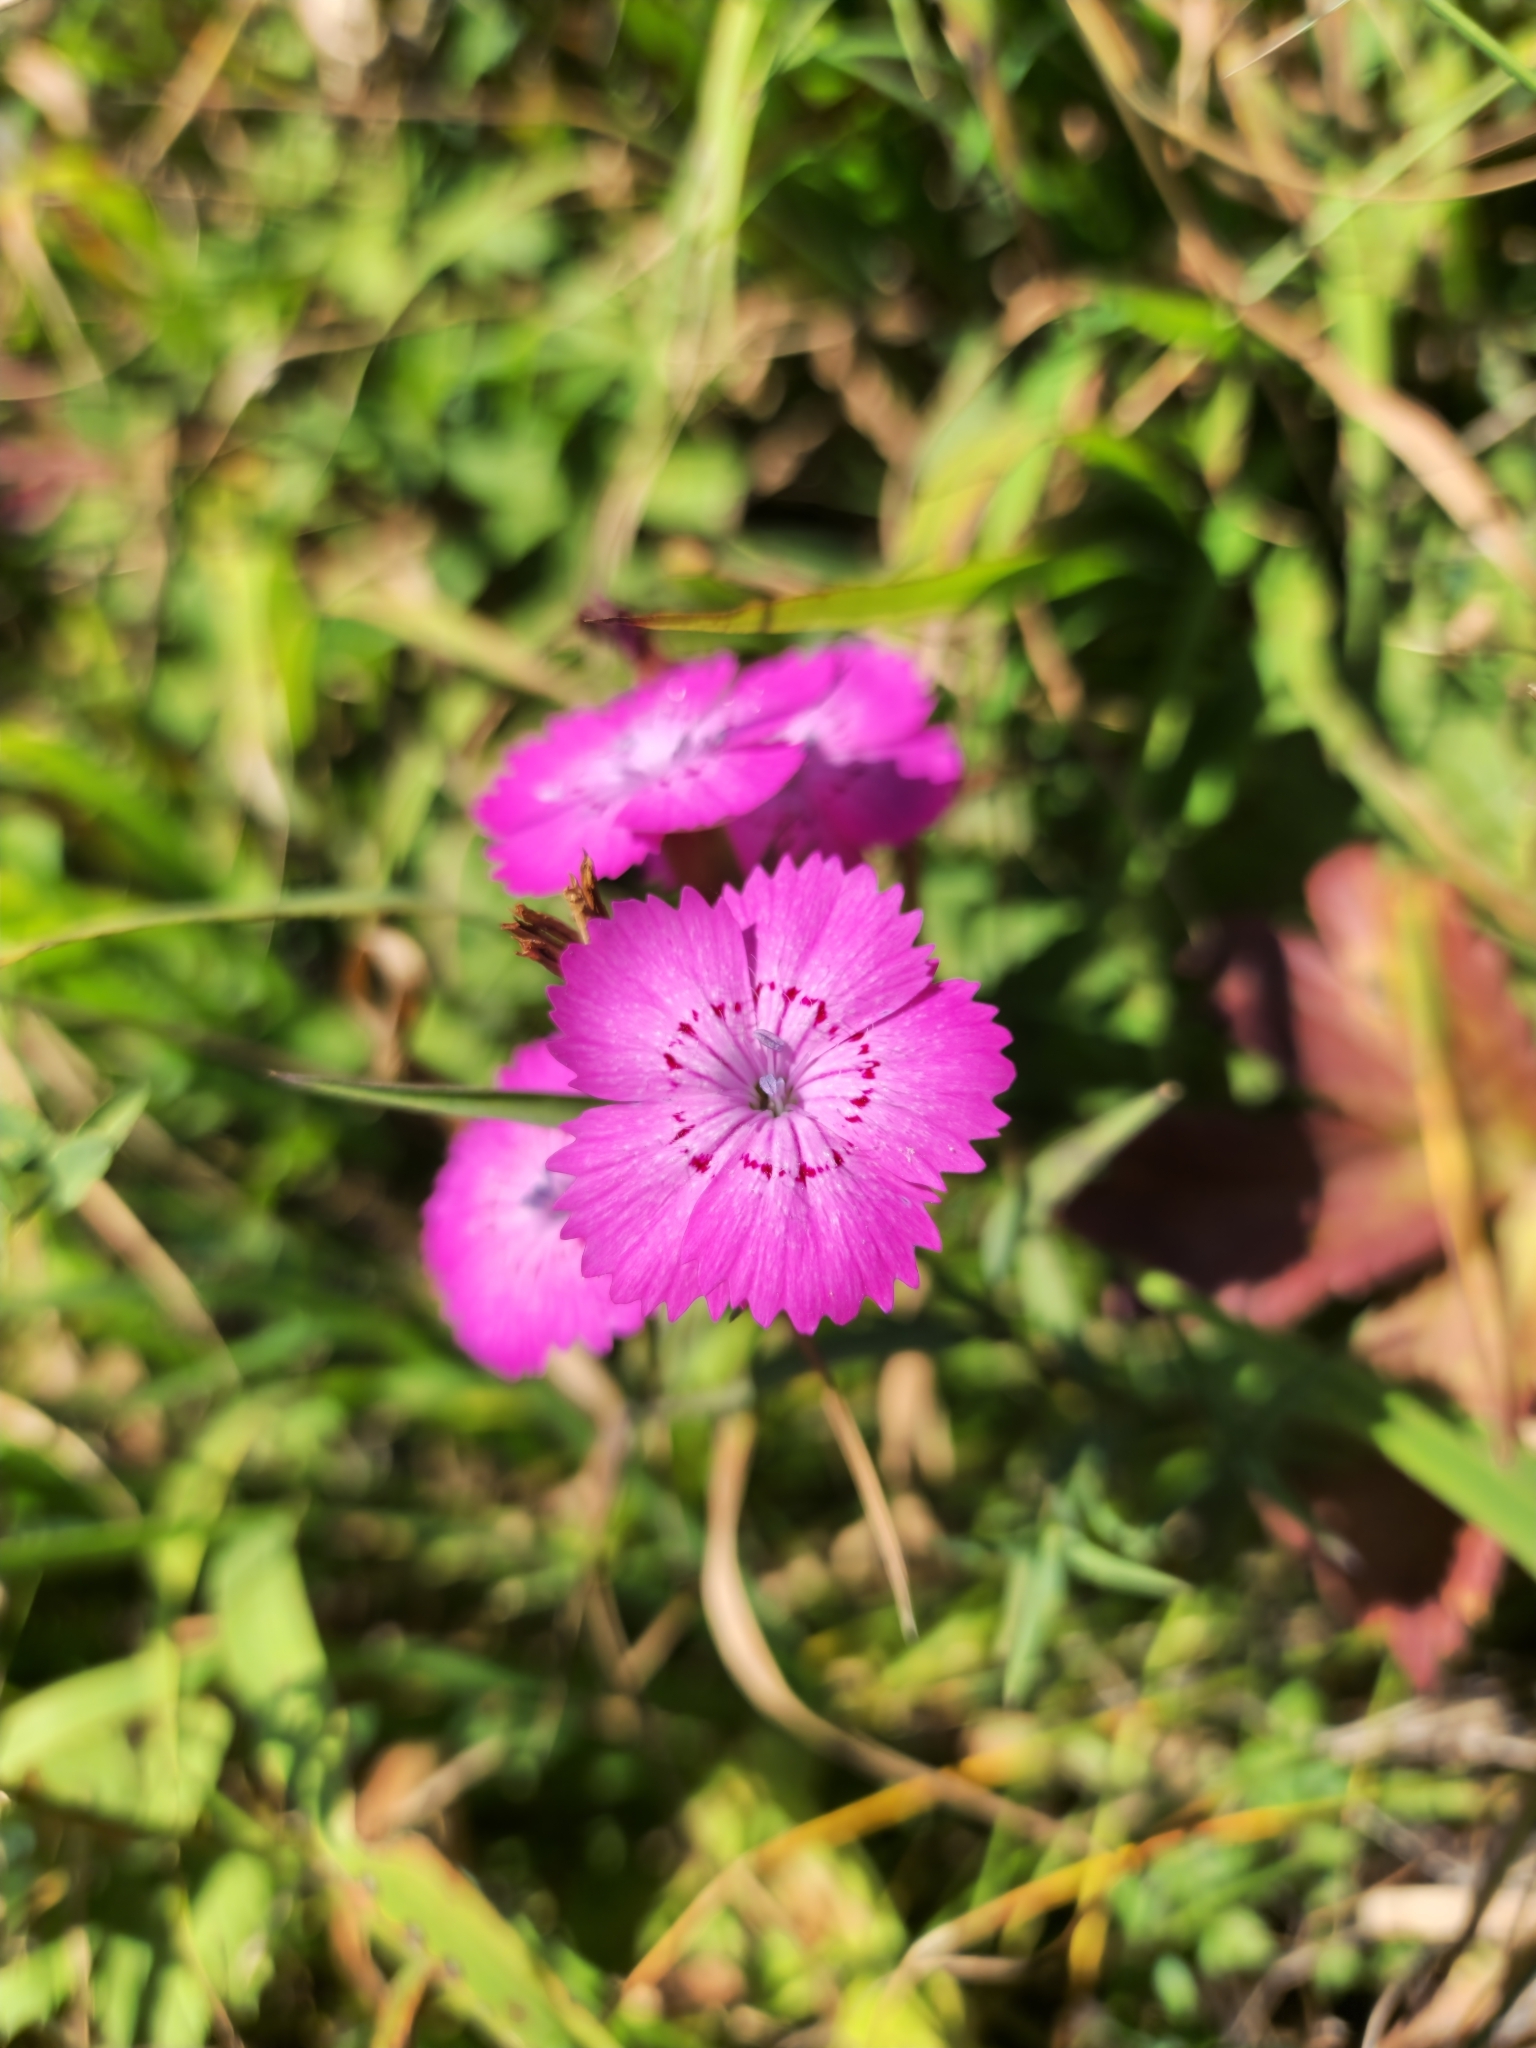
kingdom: Plantae
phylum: Tracheophyta
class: Magnoliopsida
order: Caryophyllales
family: Caryophyllaceae
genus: Dianthus
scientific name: Dianthus caucaseus
